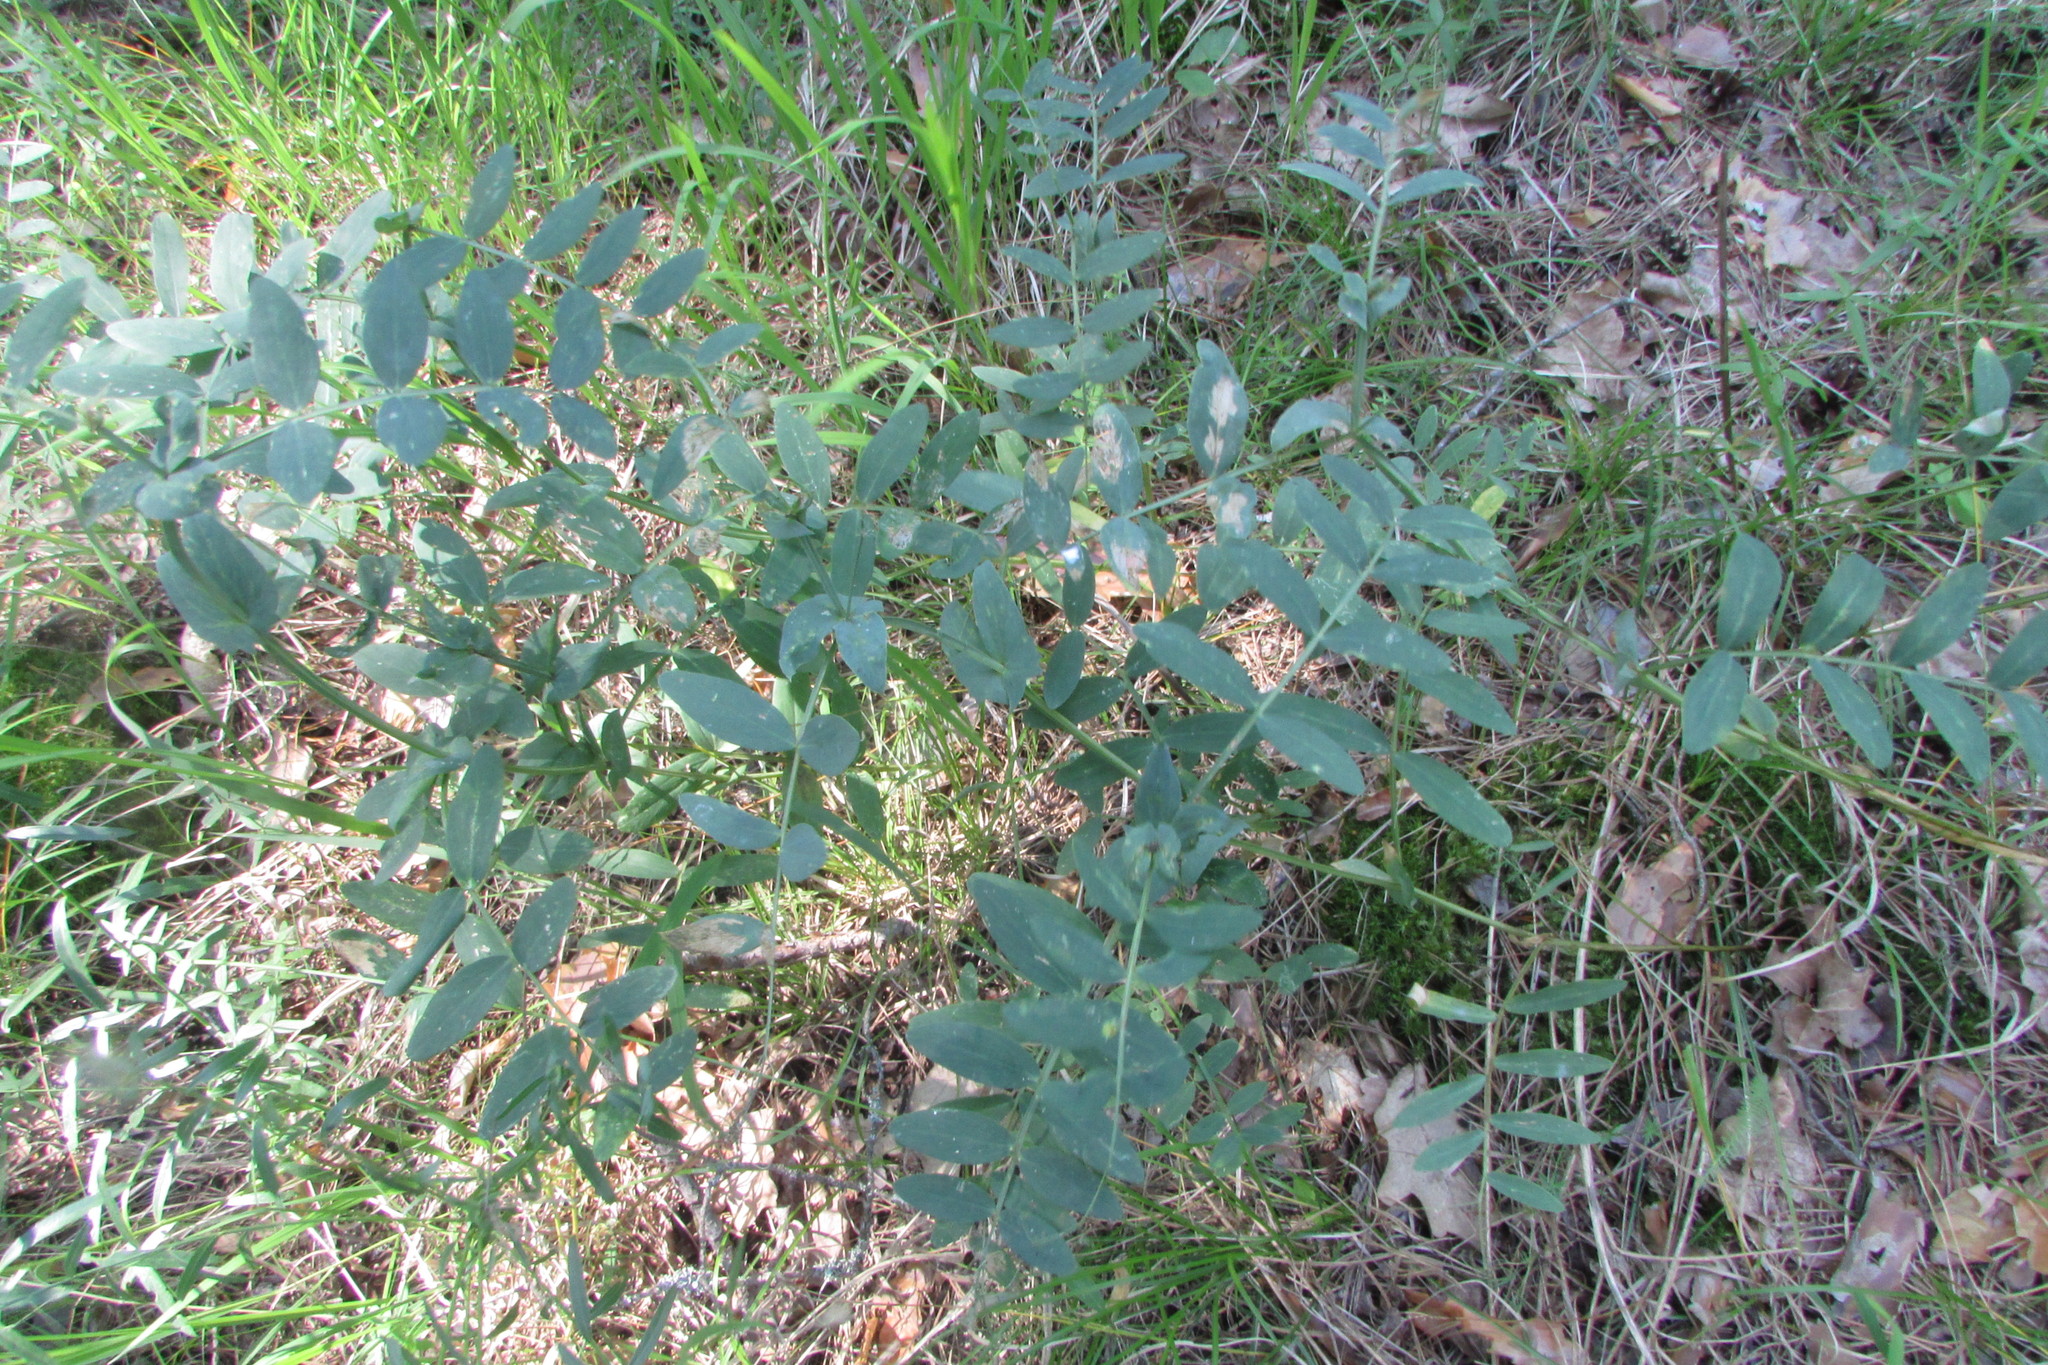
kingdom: Plantae
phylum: Tracheophyta
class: Magnoliopsida
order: Fabales
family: Fabaceae
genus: Lathyrus
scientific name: Lathyrus pisiformis
